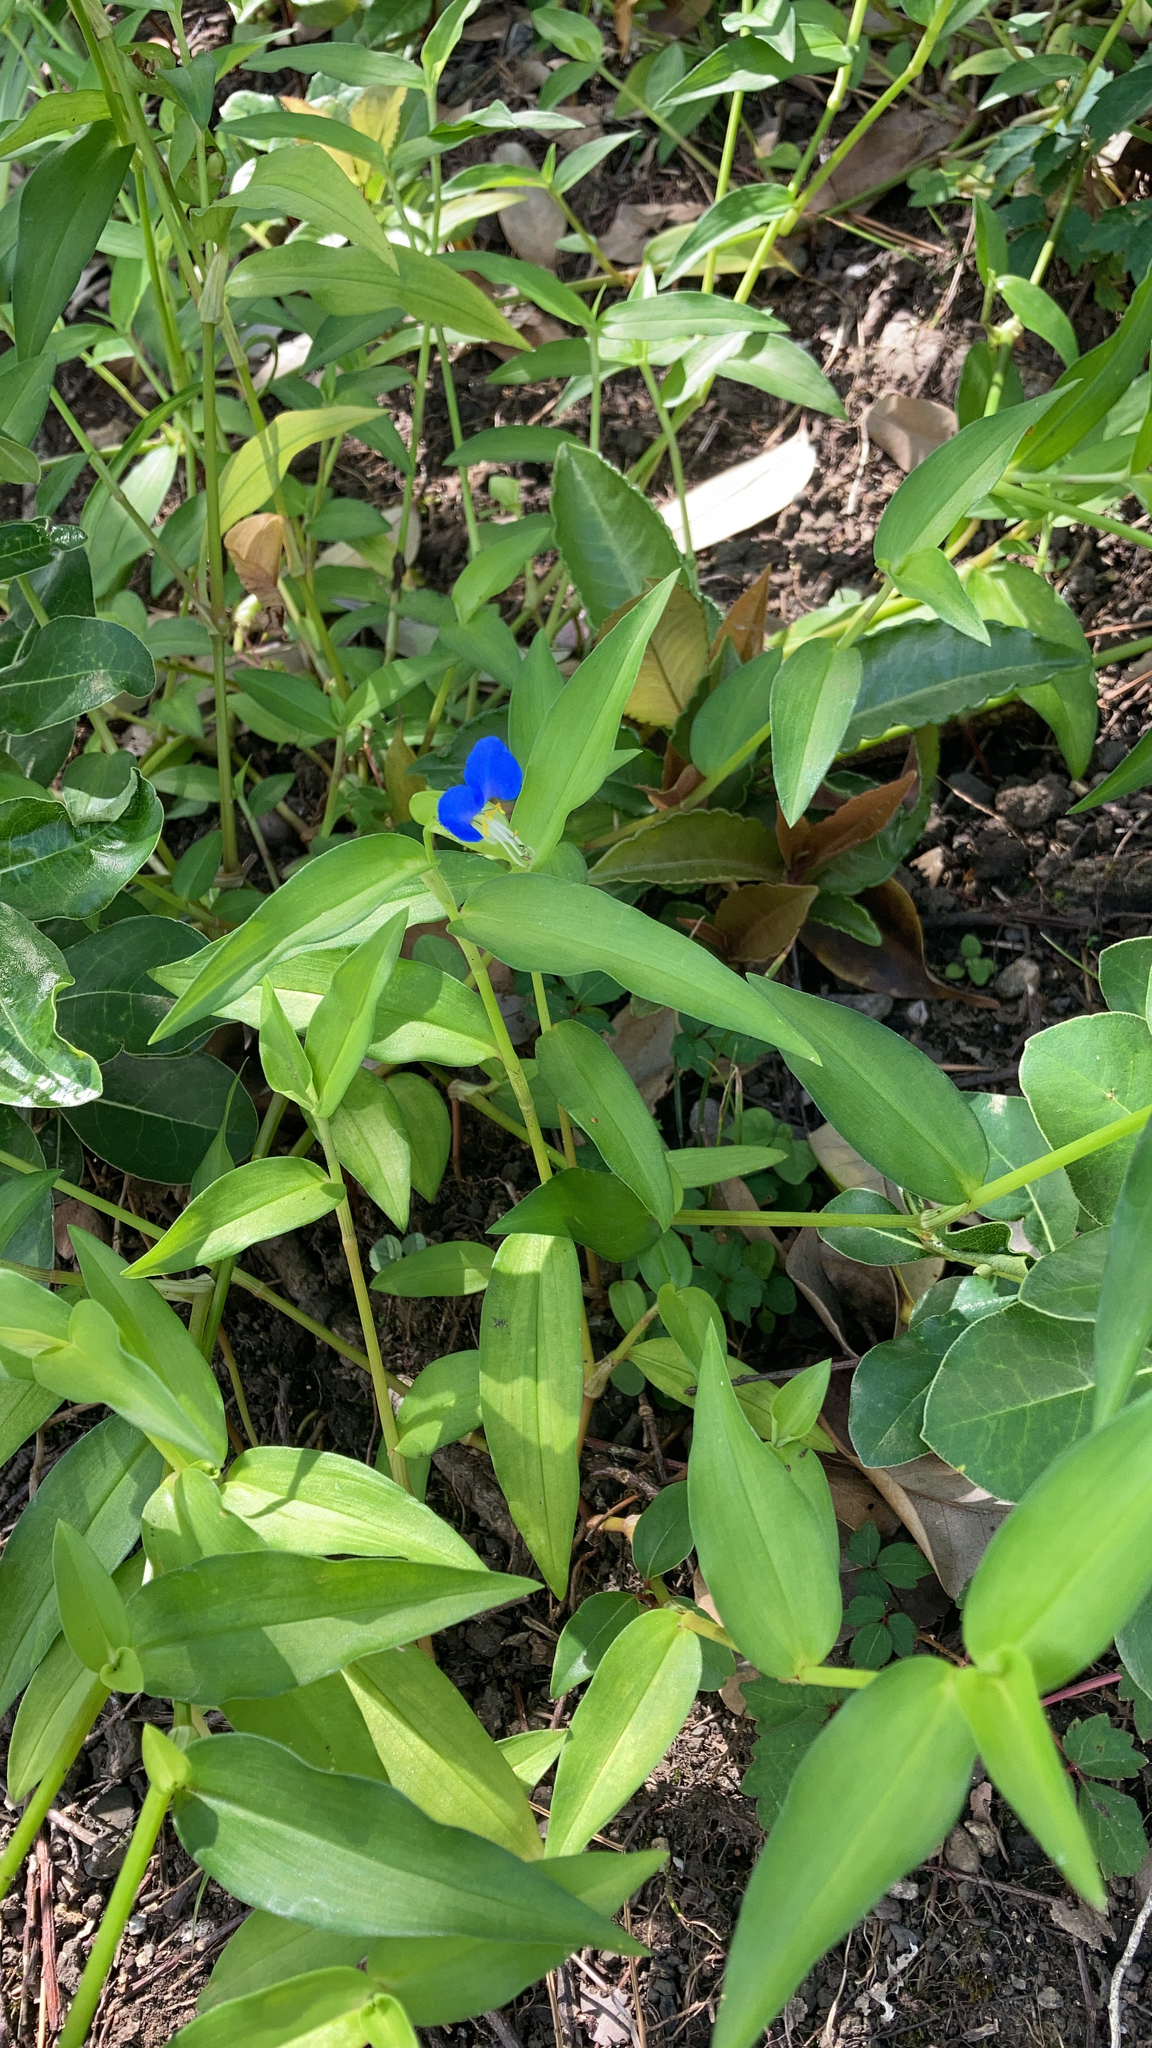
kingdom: Plantae
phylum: Tracheophyta
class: Liliopsida
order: Commelinales
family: Commelinaceae
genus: Commelina
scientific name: Commelina communis
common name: Asiatic dayflower
